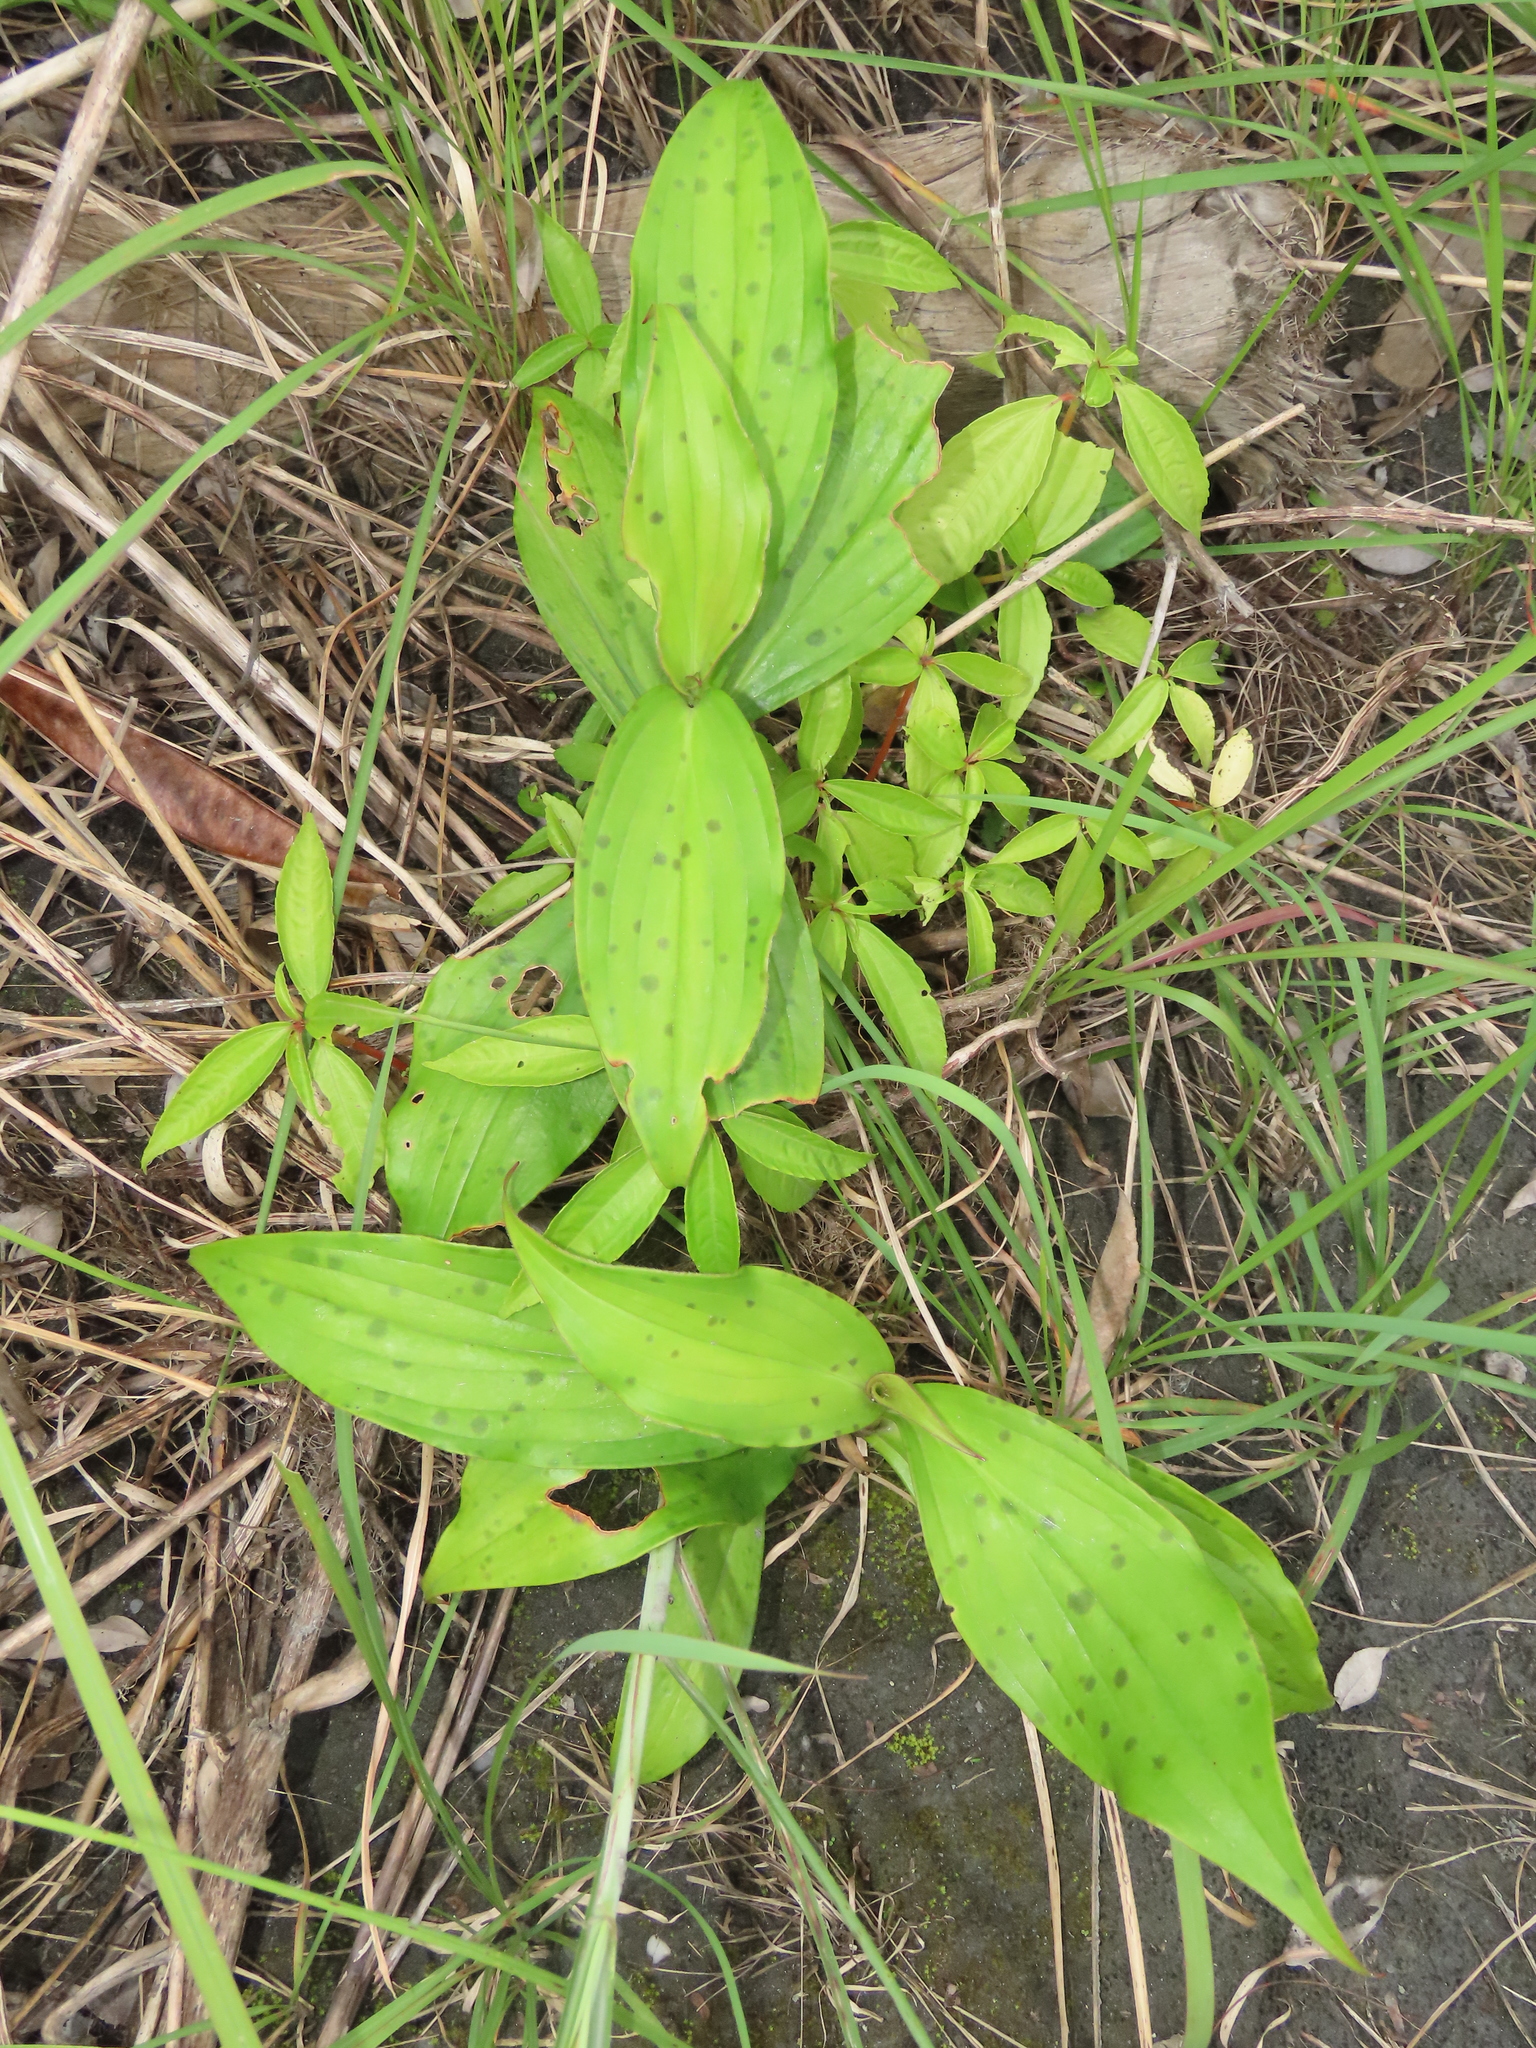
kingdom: Plantae
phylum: Tracheophyta
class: Liliopsida
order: Liliales
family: Liliaceae
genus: Tricyrtis
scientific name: Tricyrtis formosana
